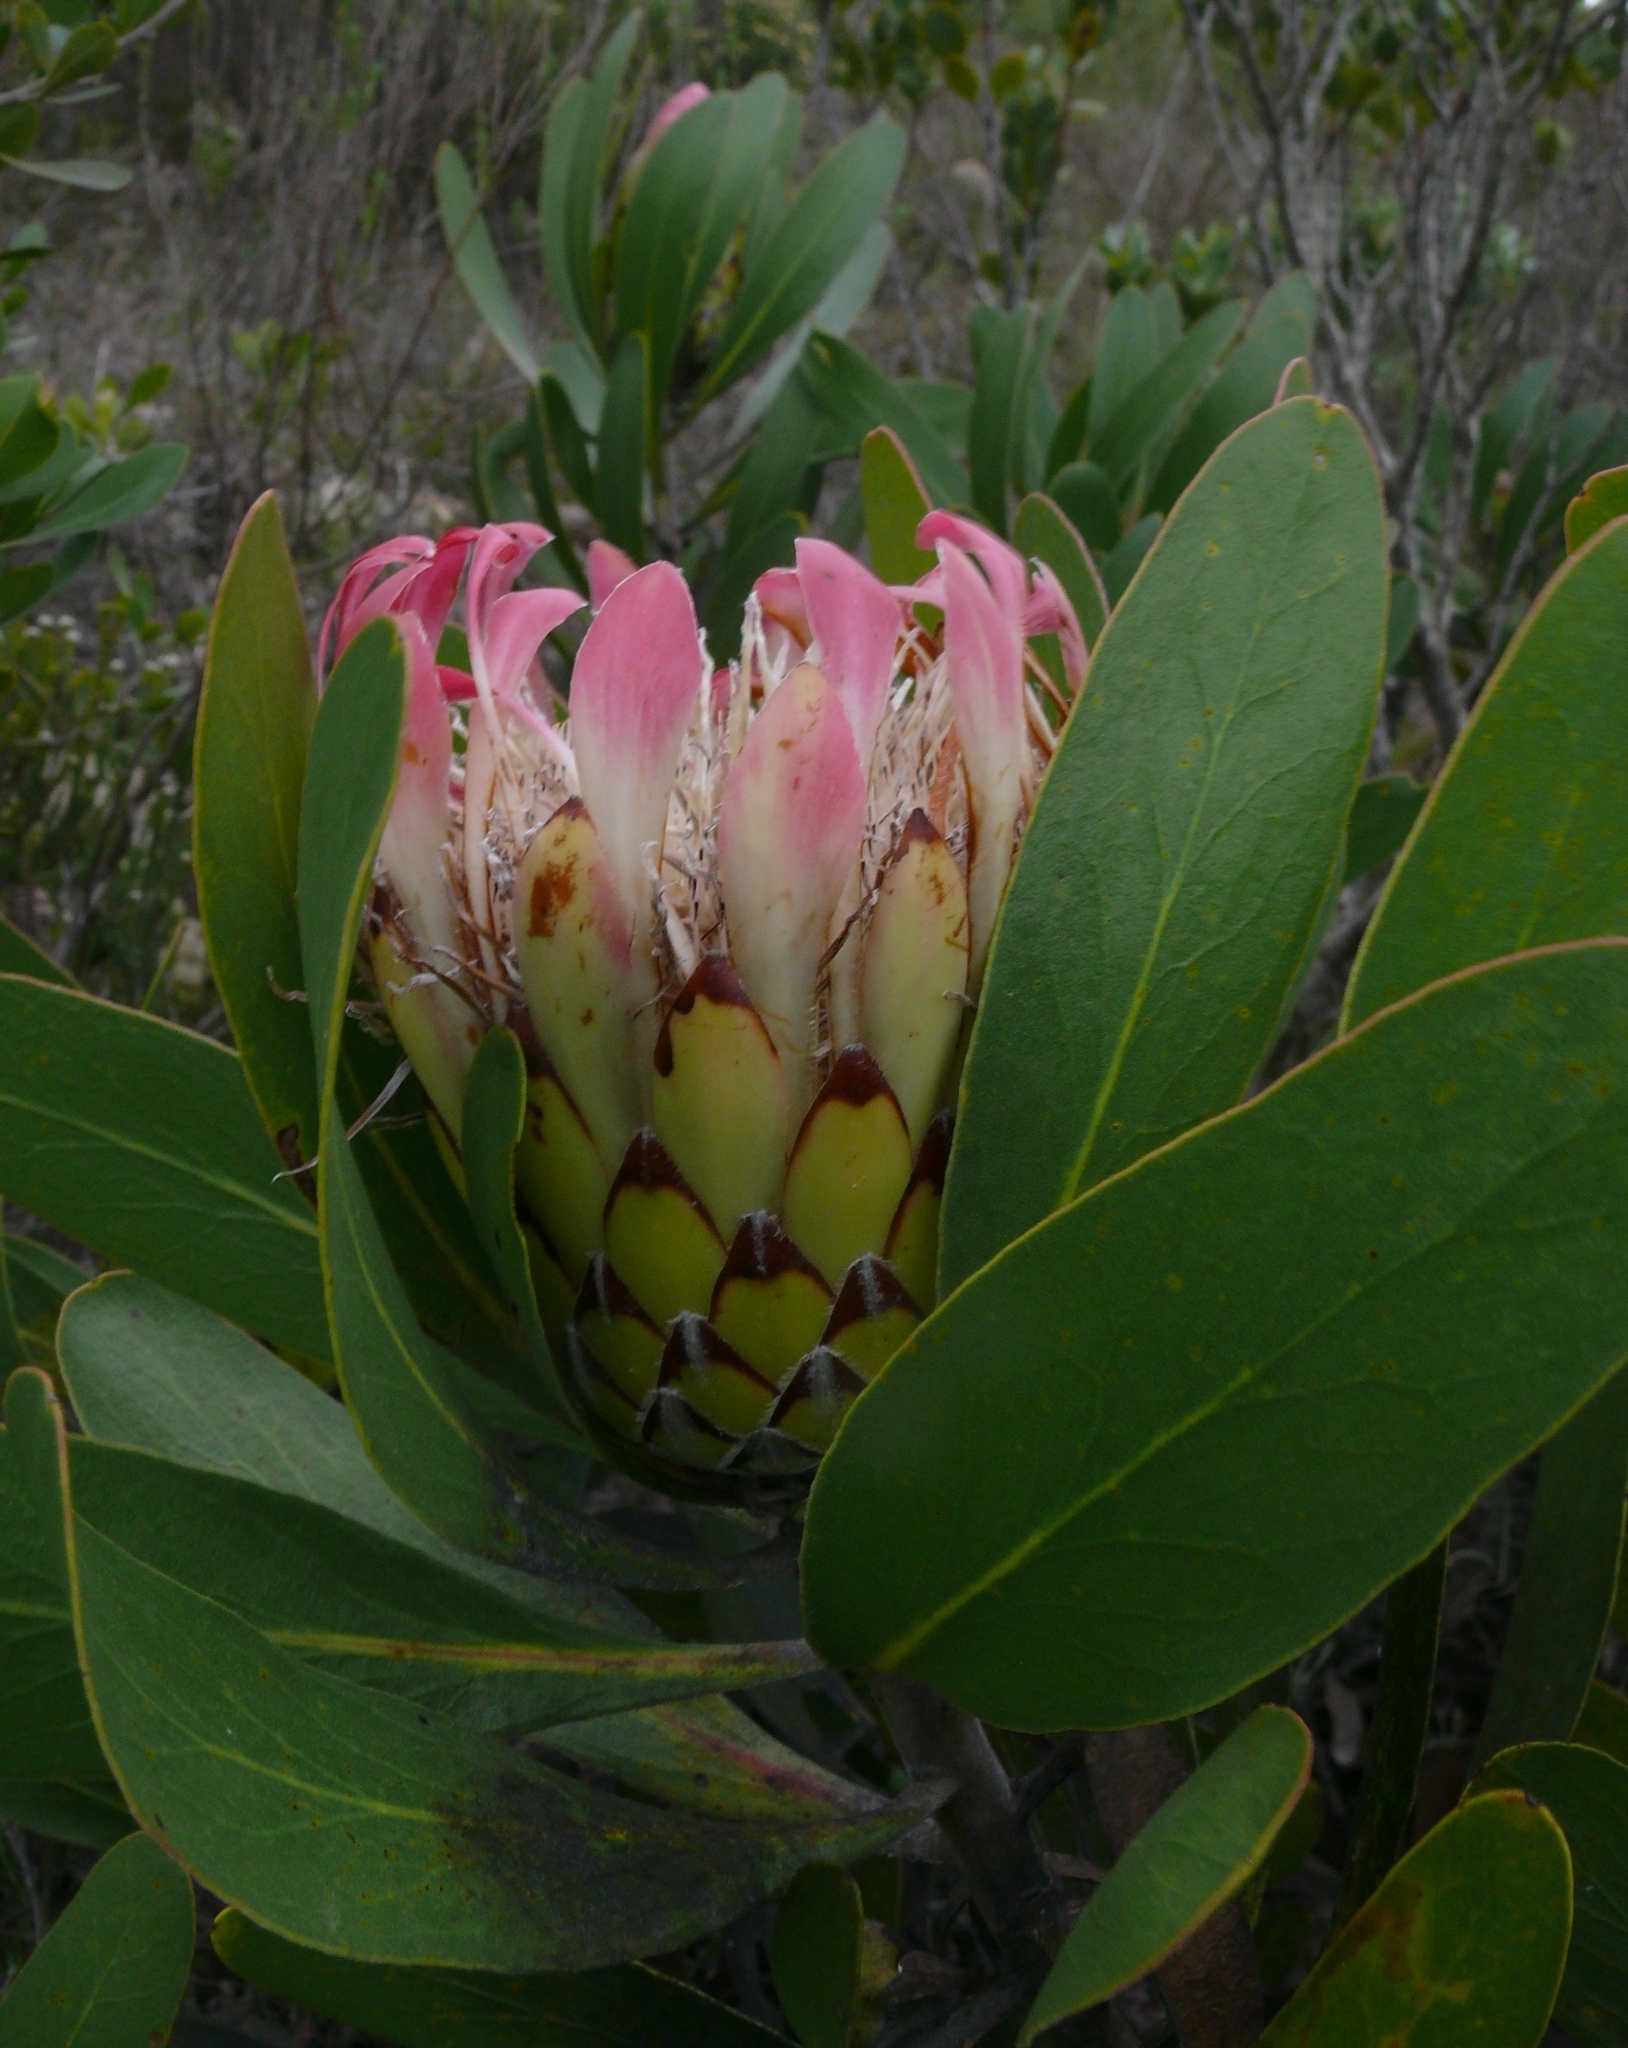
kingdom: Plantae
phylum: Tracheophyta
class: Magnoliopsida
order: Proteales
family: Proteaceae
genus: Protea
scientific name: Protea obtusifolia
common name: Bredasdorp sugarbush
